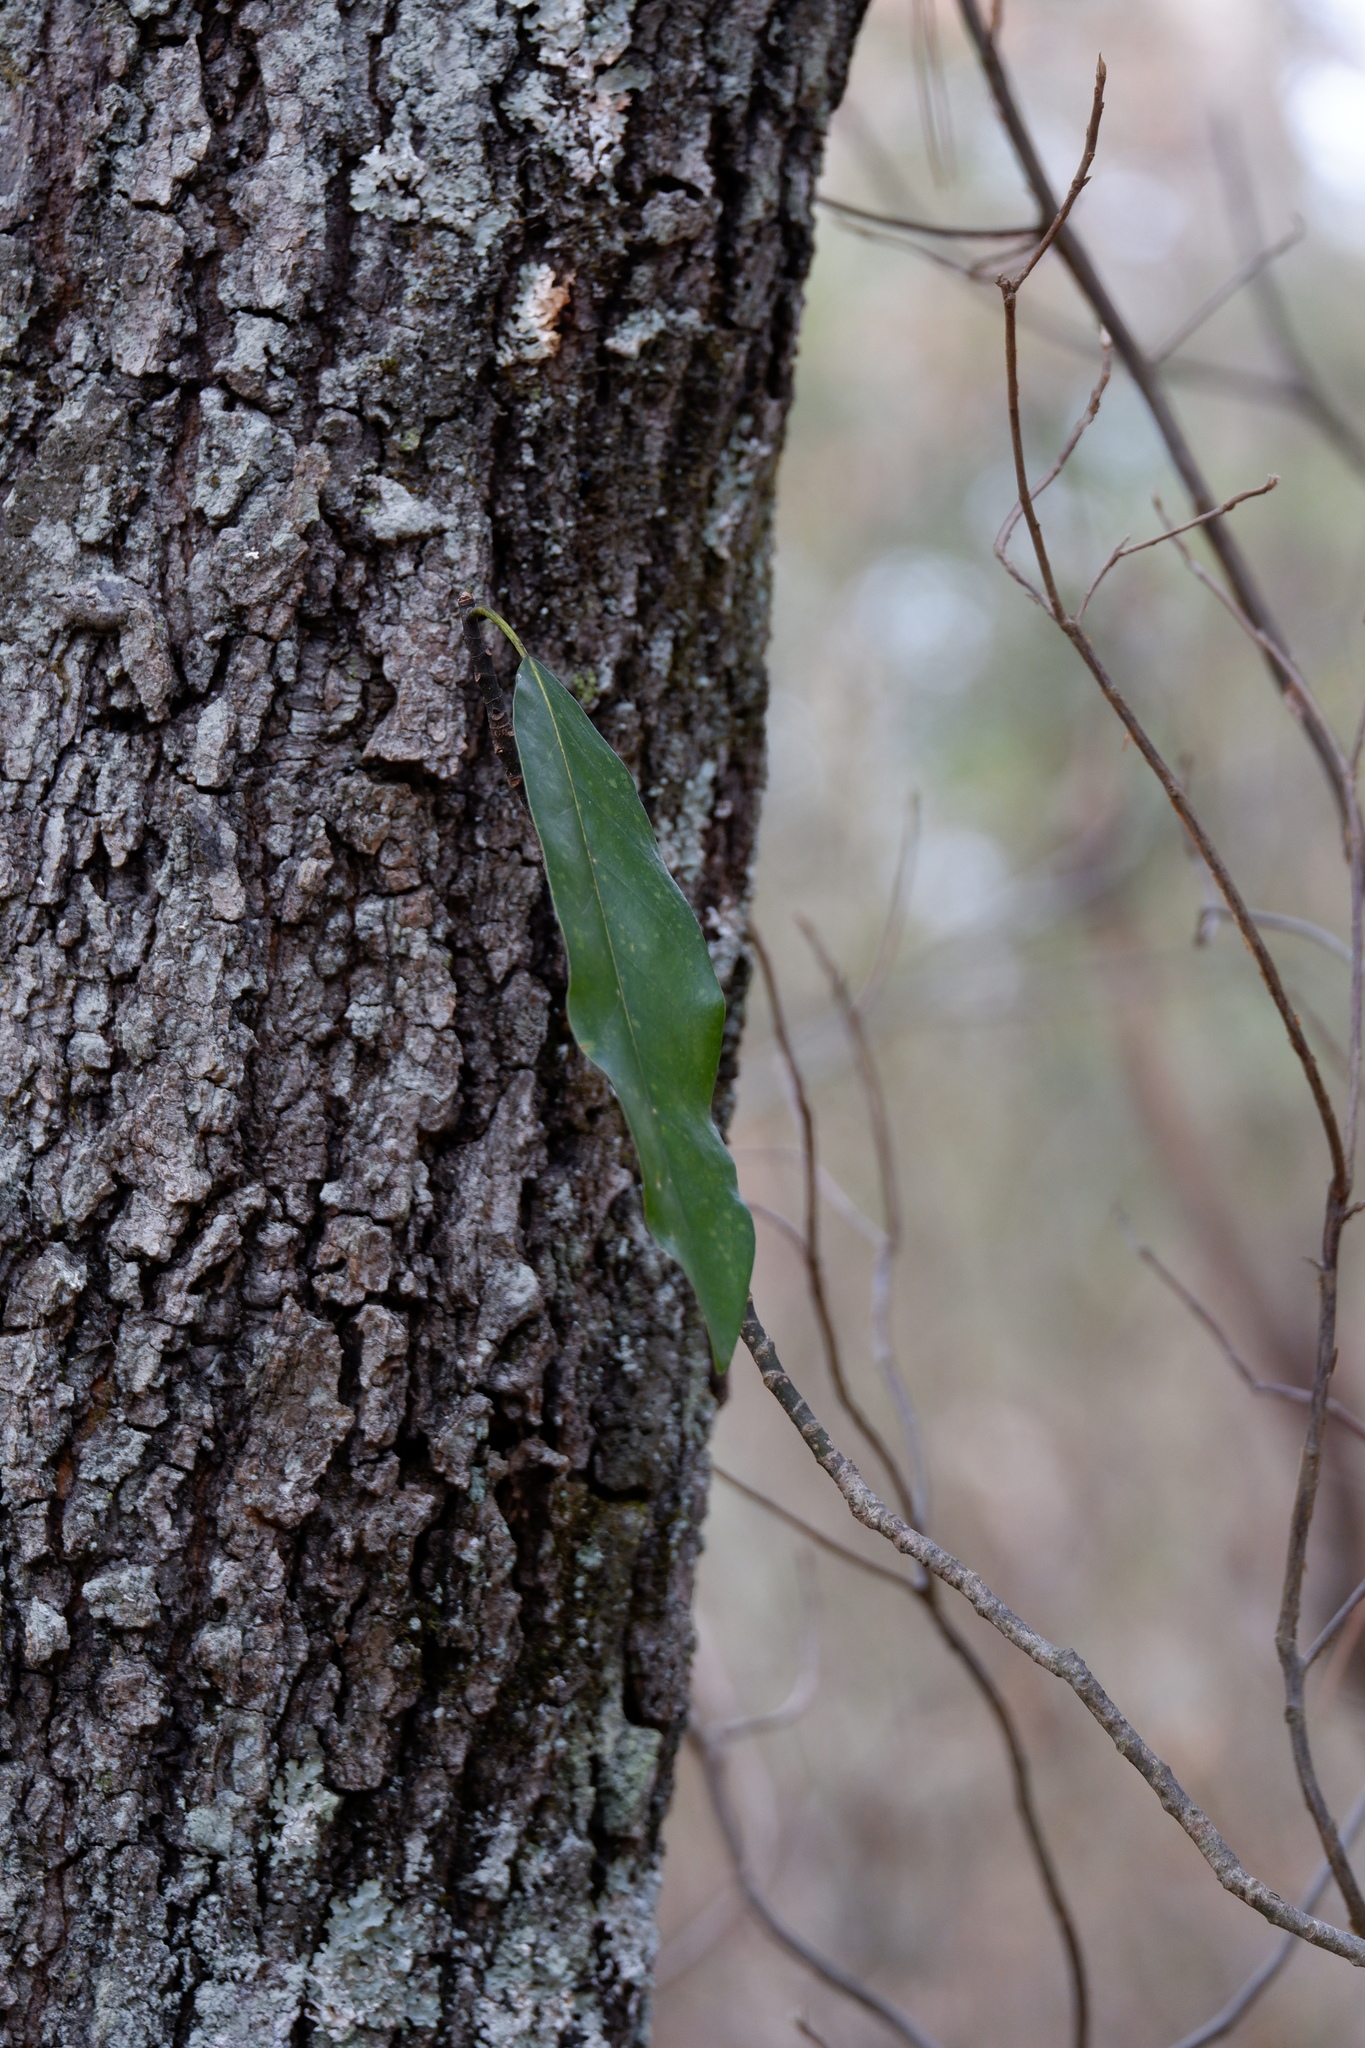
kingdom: Plantae
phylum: Tracheophyta
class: Magnoliopsida
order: Magnoliales
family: Magnoliaceae
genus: Magnolia
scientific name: Magnolia virginiana
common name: Swamp bay
